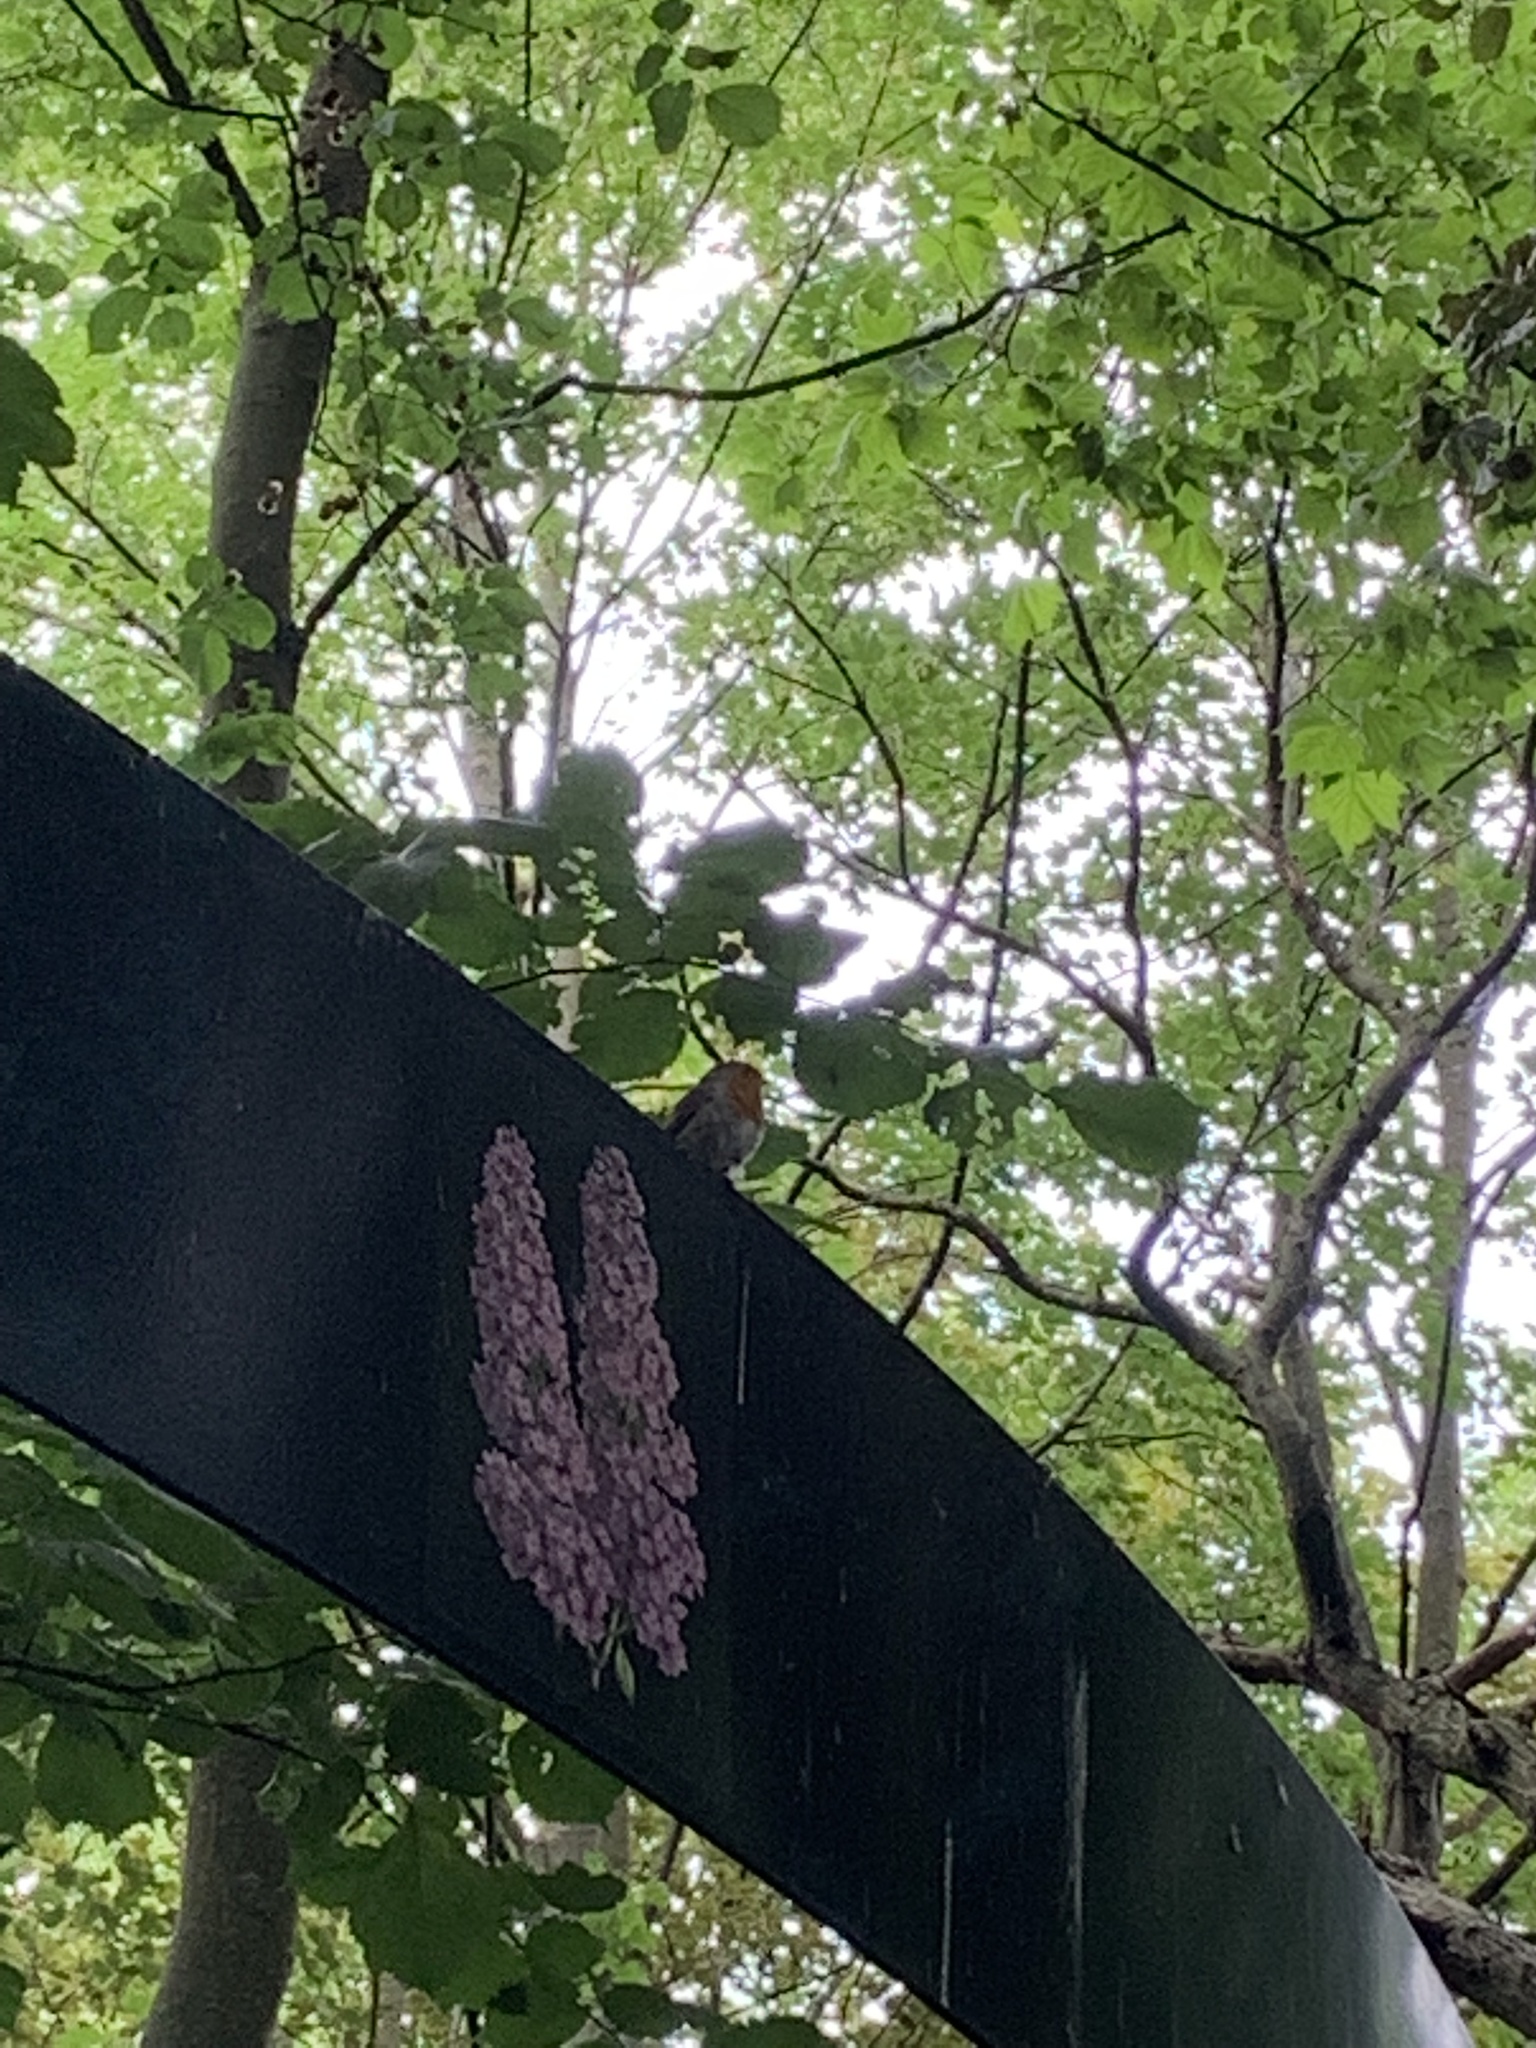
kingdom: Animalia
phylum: Chordata
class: Aves
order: Passeriformes
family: Muscicapidae
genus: Erithacus
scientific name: Erithacus rubecula
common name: European robin
